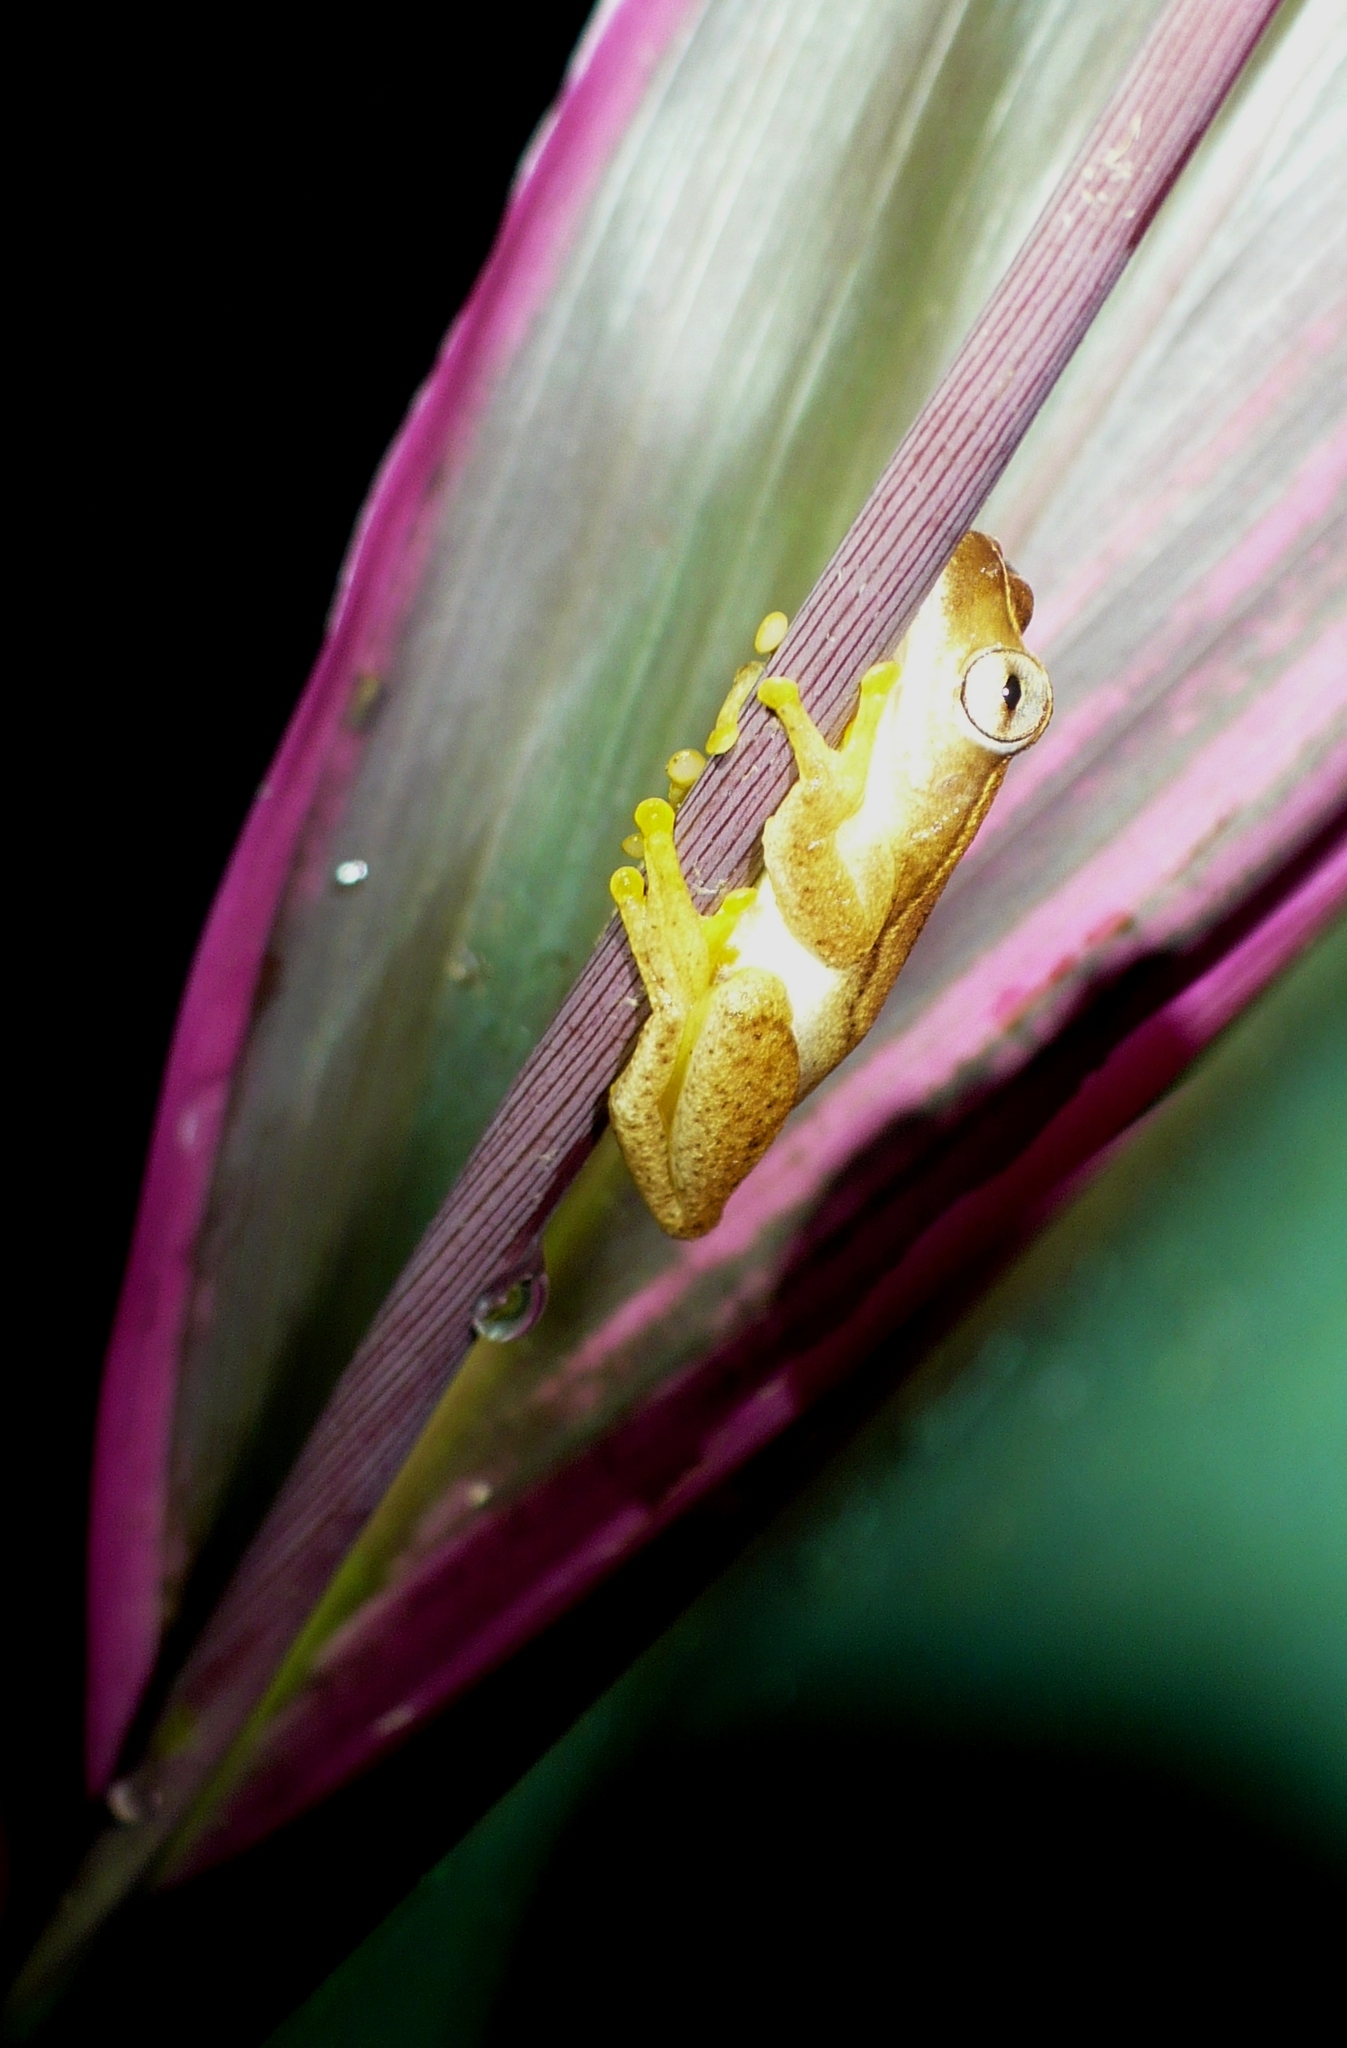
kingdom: Animalia
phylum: Chordata
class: Amphibia
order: Anura
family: Hylidae
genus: Dendropsophus
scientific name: Dendropsophus microcephalus
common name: Small-headed treefrog
